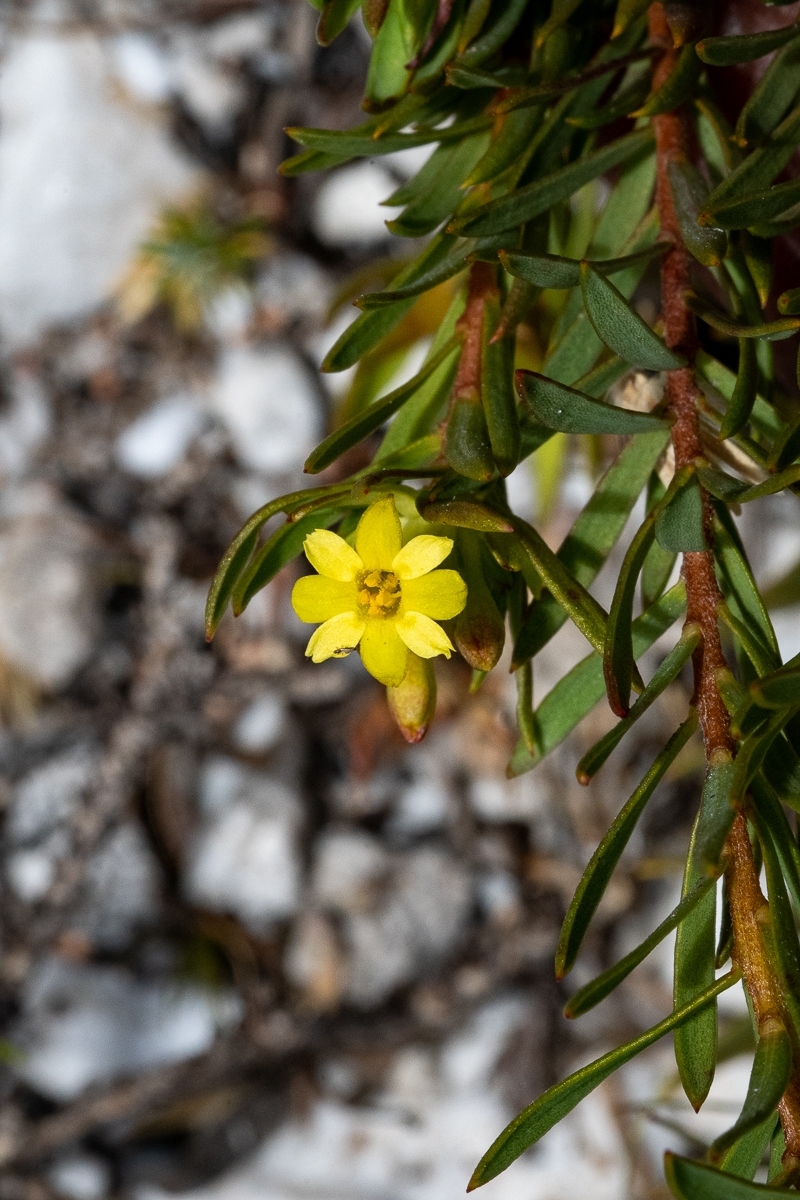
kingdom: Plantae
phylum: Tracheophyta
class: Magnoliopsida
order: Malvales
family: Thymelaeaceae
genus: Gnidia
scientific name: Gnidia juniperifolia
